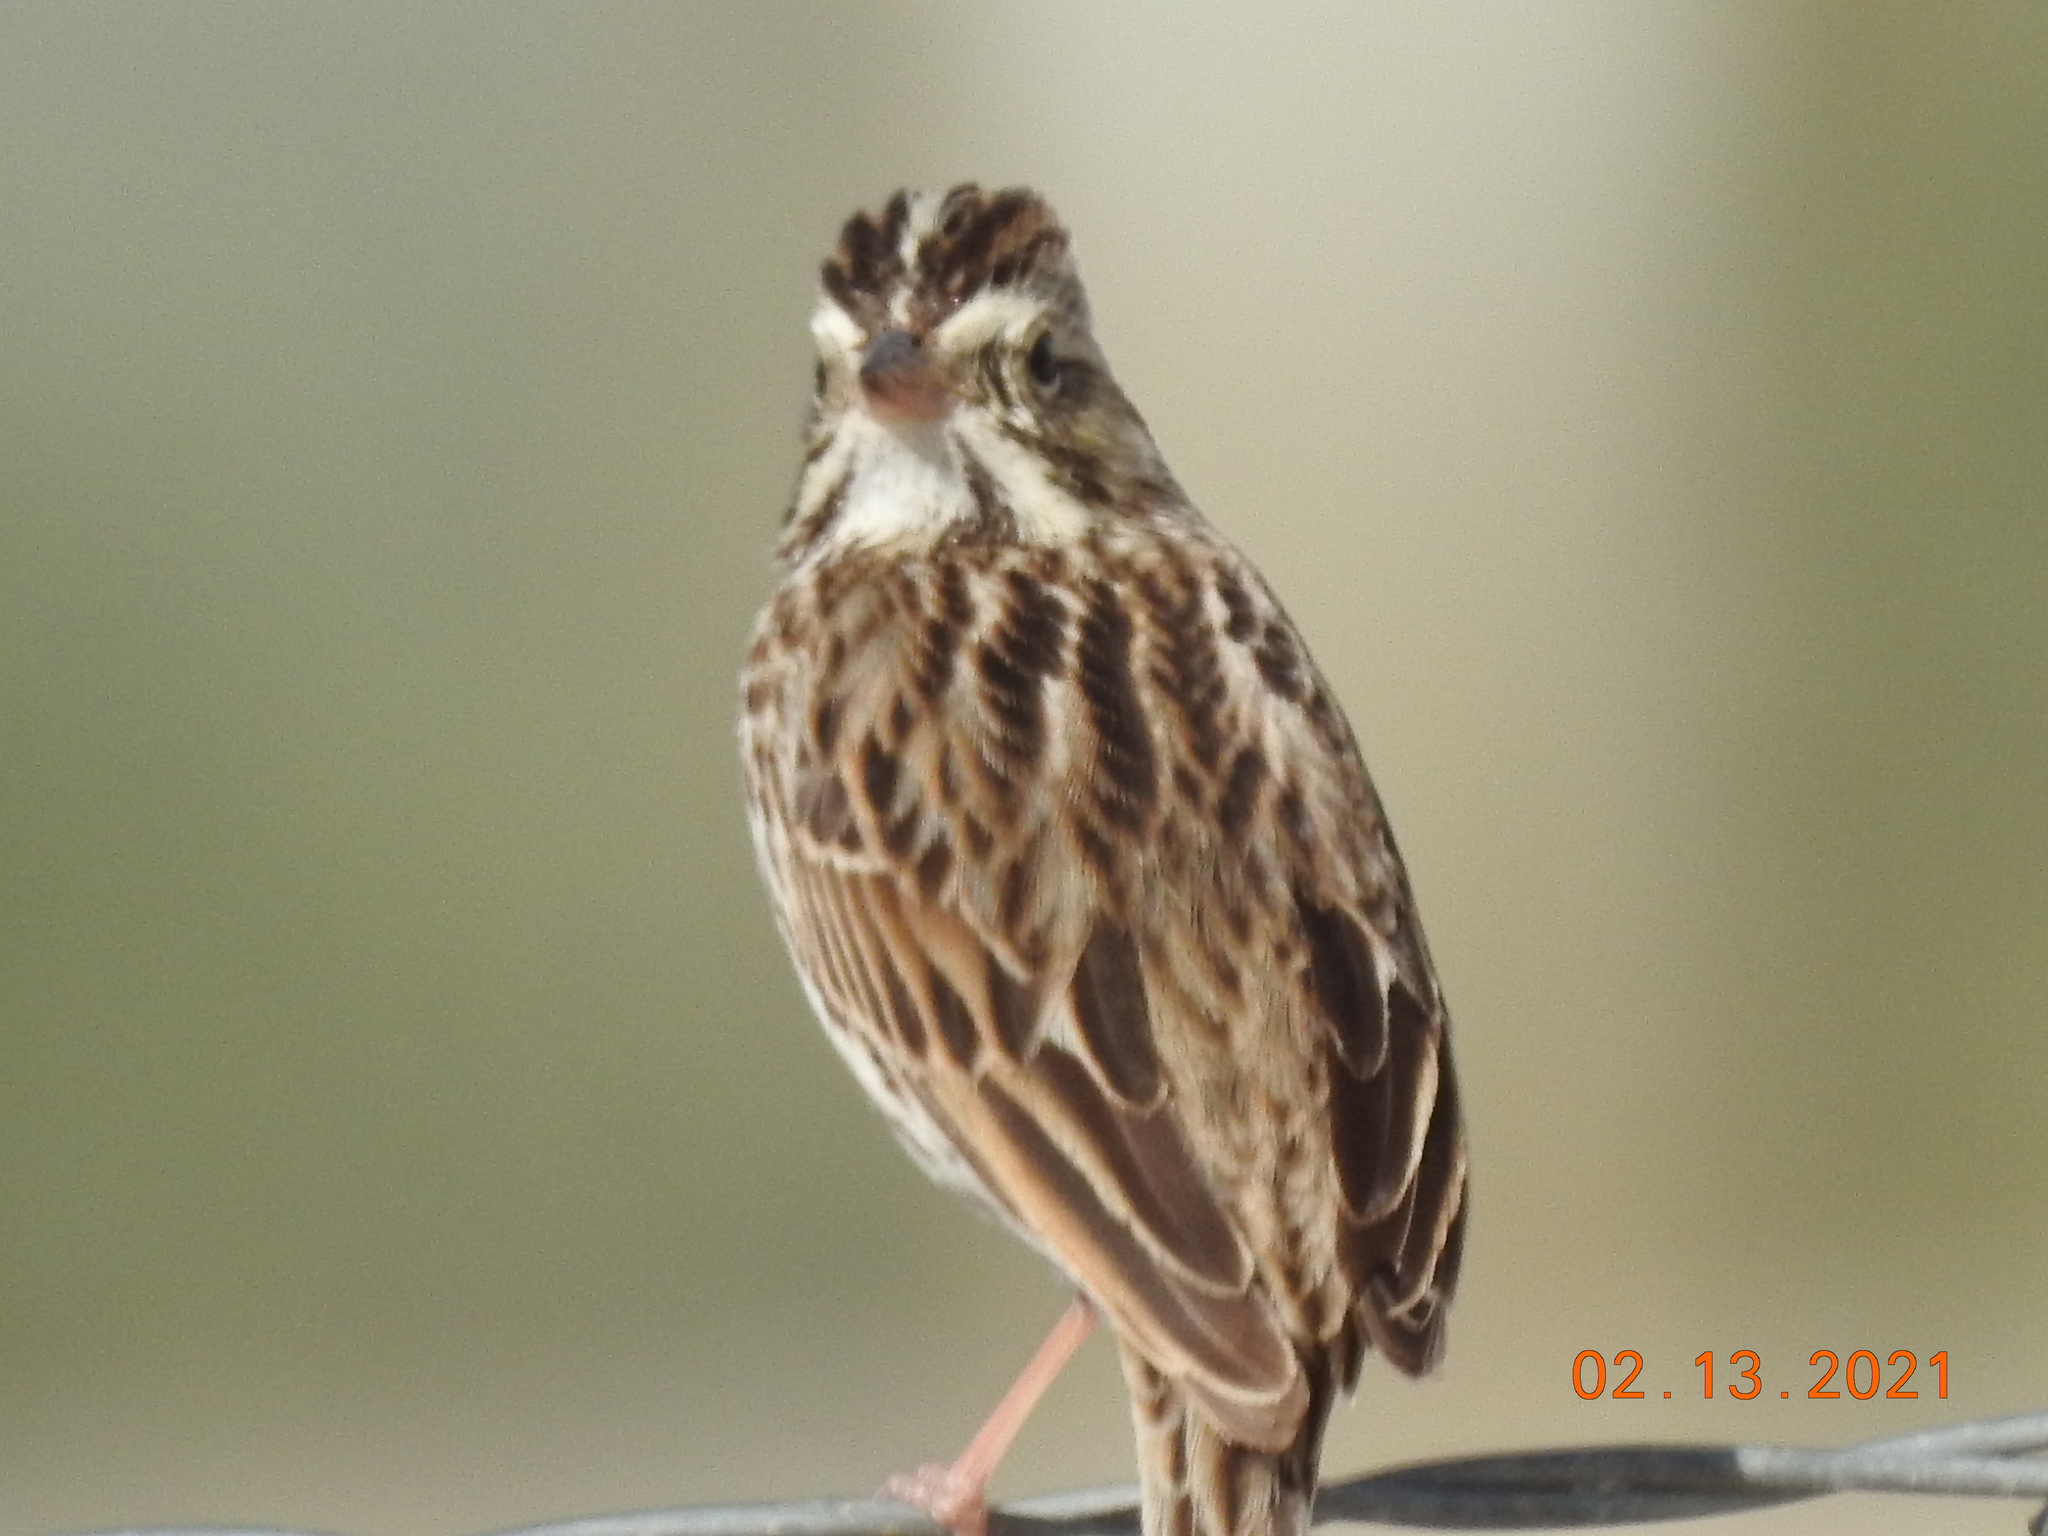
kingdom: Animalia
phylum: Chordata
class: Aves
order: Passeriformes
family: Passerellidae
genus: Passerculus
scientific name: Passerculus sandwichensis
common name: Savannah sparrow
